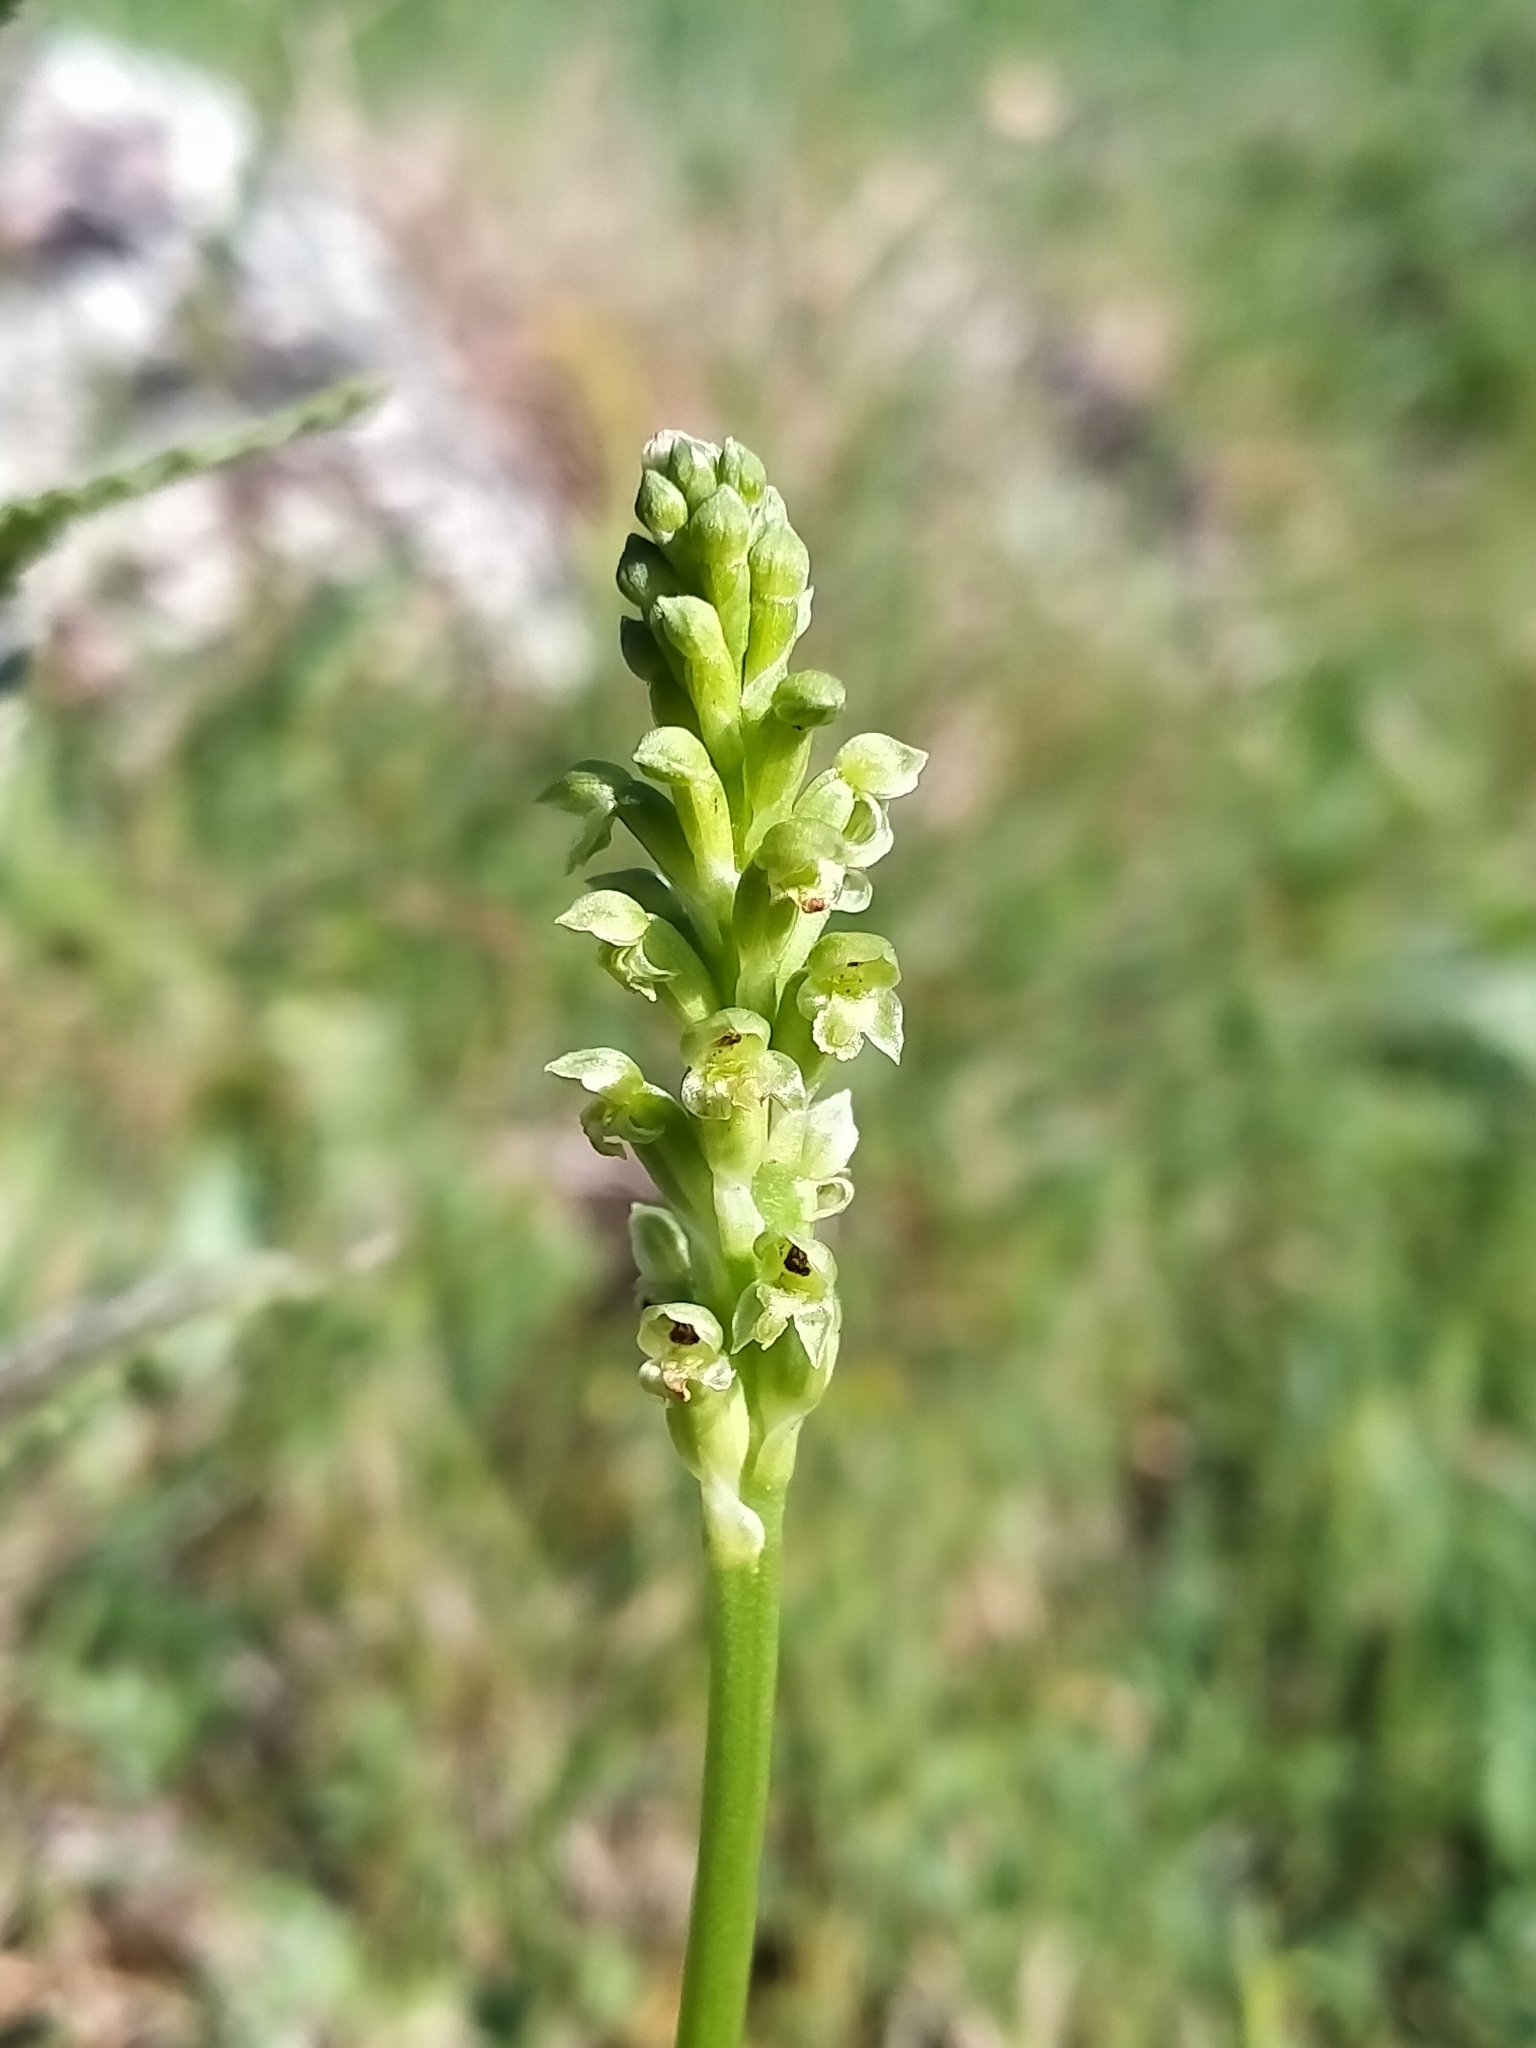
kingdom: Plantae
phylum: Tracheophyta
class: Liliopsida
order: Asparagales
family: Orchidaceae
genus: Microtis
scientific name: Microtis unifolia
